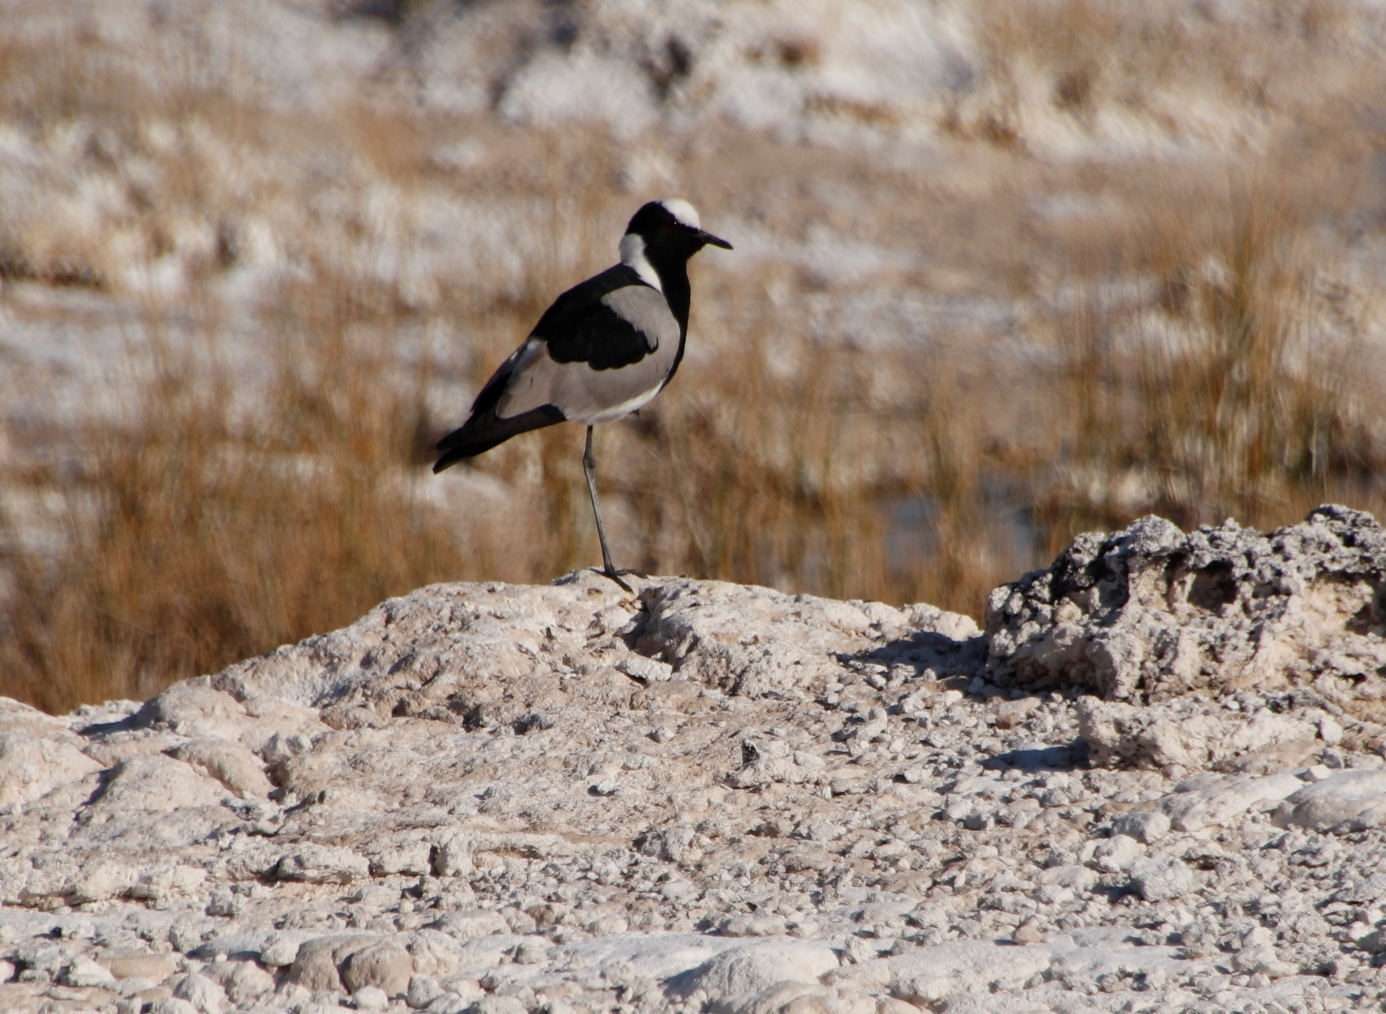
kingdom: Animalia
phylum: Chordata
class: Aves
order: Charadriiformes
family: Charadriidae
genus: Vanellus
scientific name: Vanellus armatus
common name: Blacksmith lapwing
